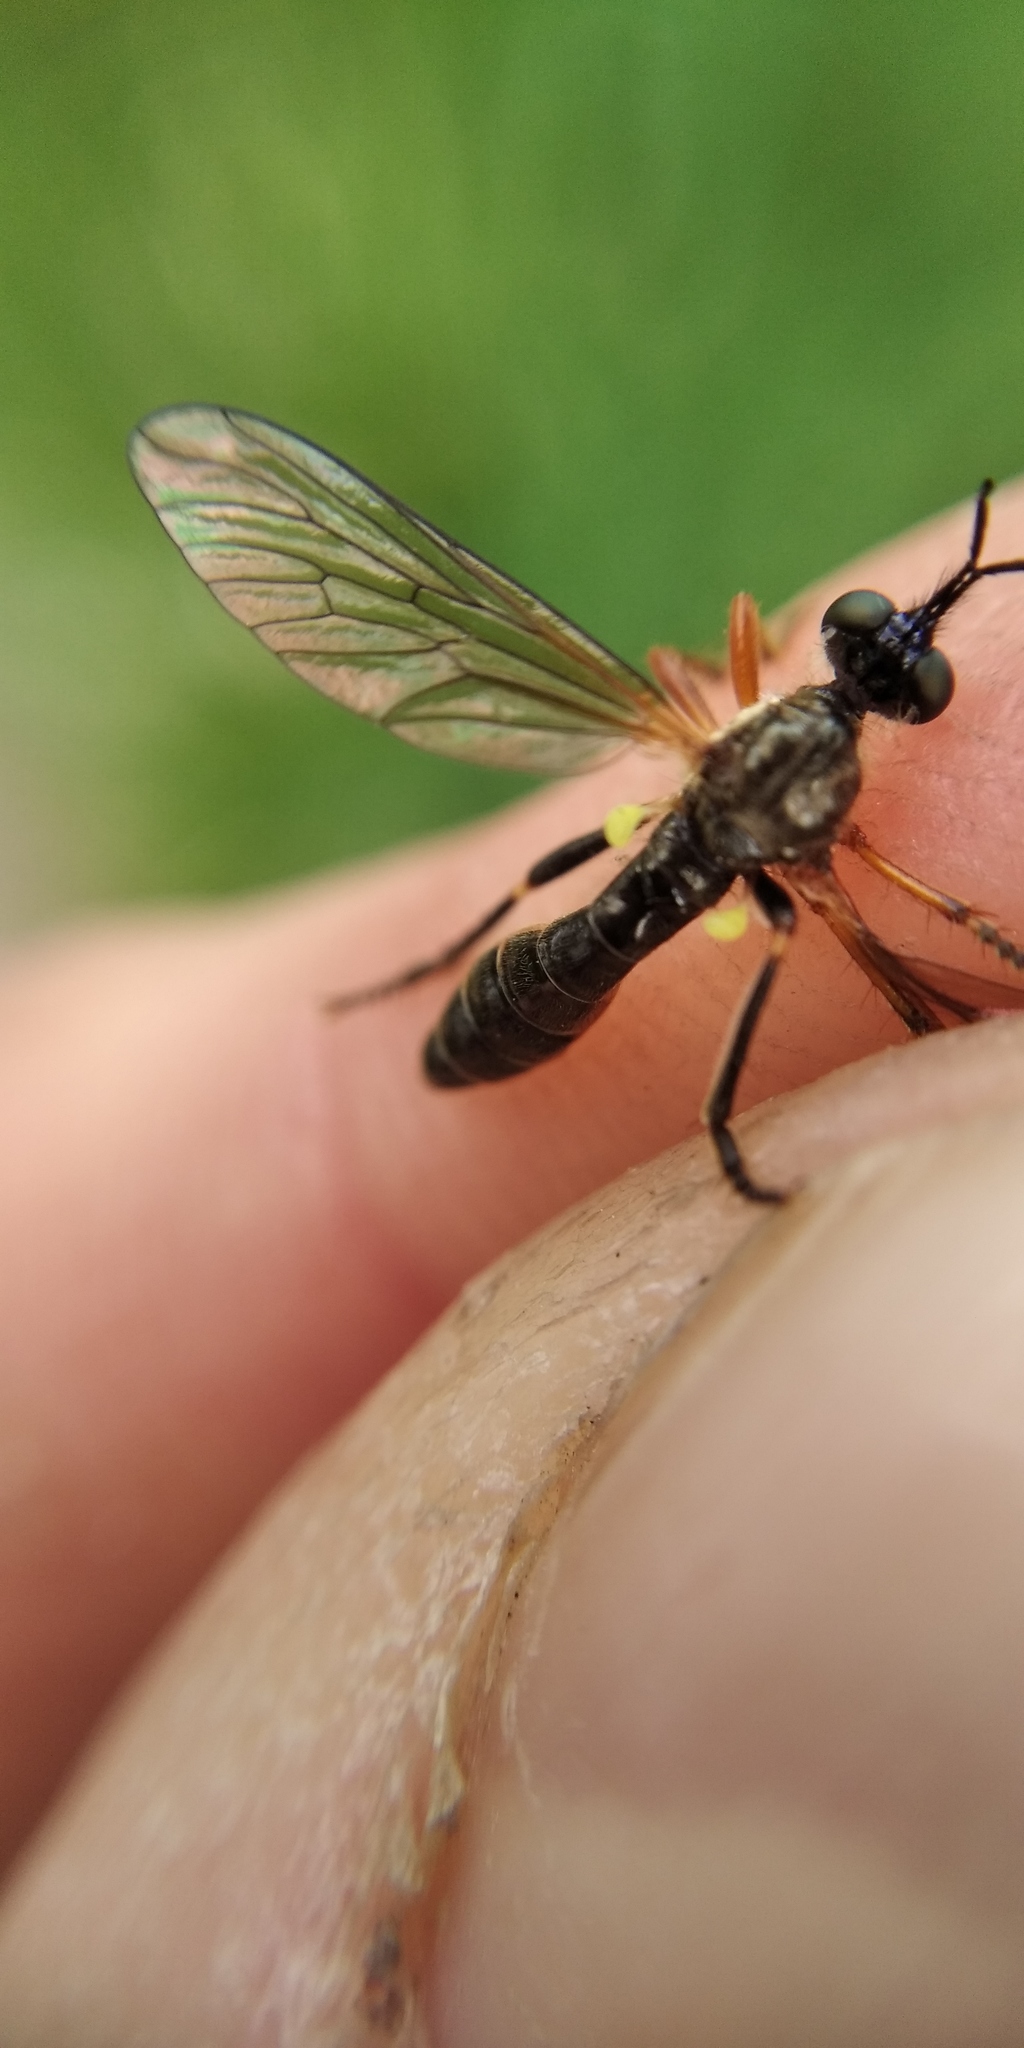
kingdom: Animalia
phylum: Arthropoda
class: Insecta
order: Diptera
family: Asilidae
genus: Dioctria
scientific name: Dioctria rufipes
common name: Common red-legged robberfly
